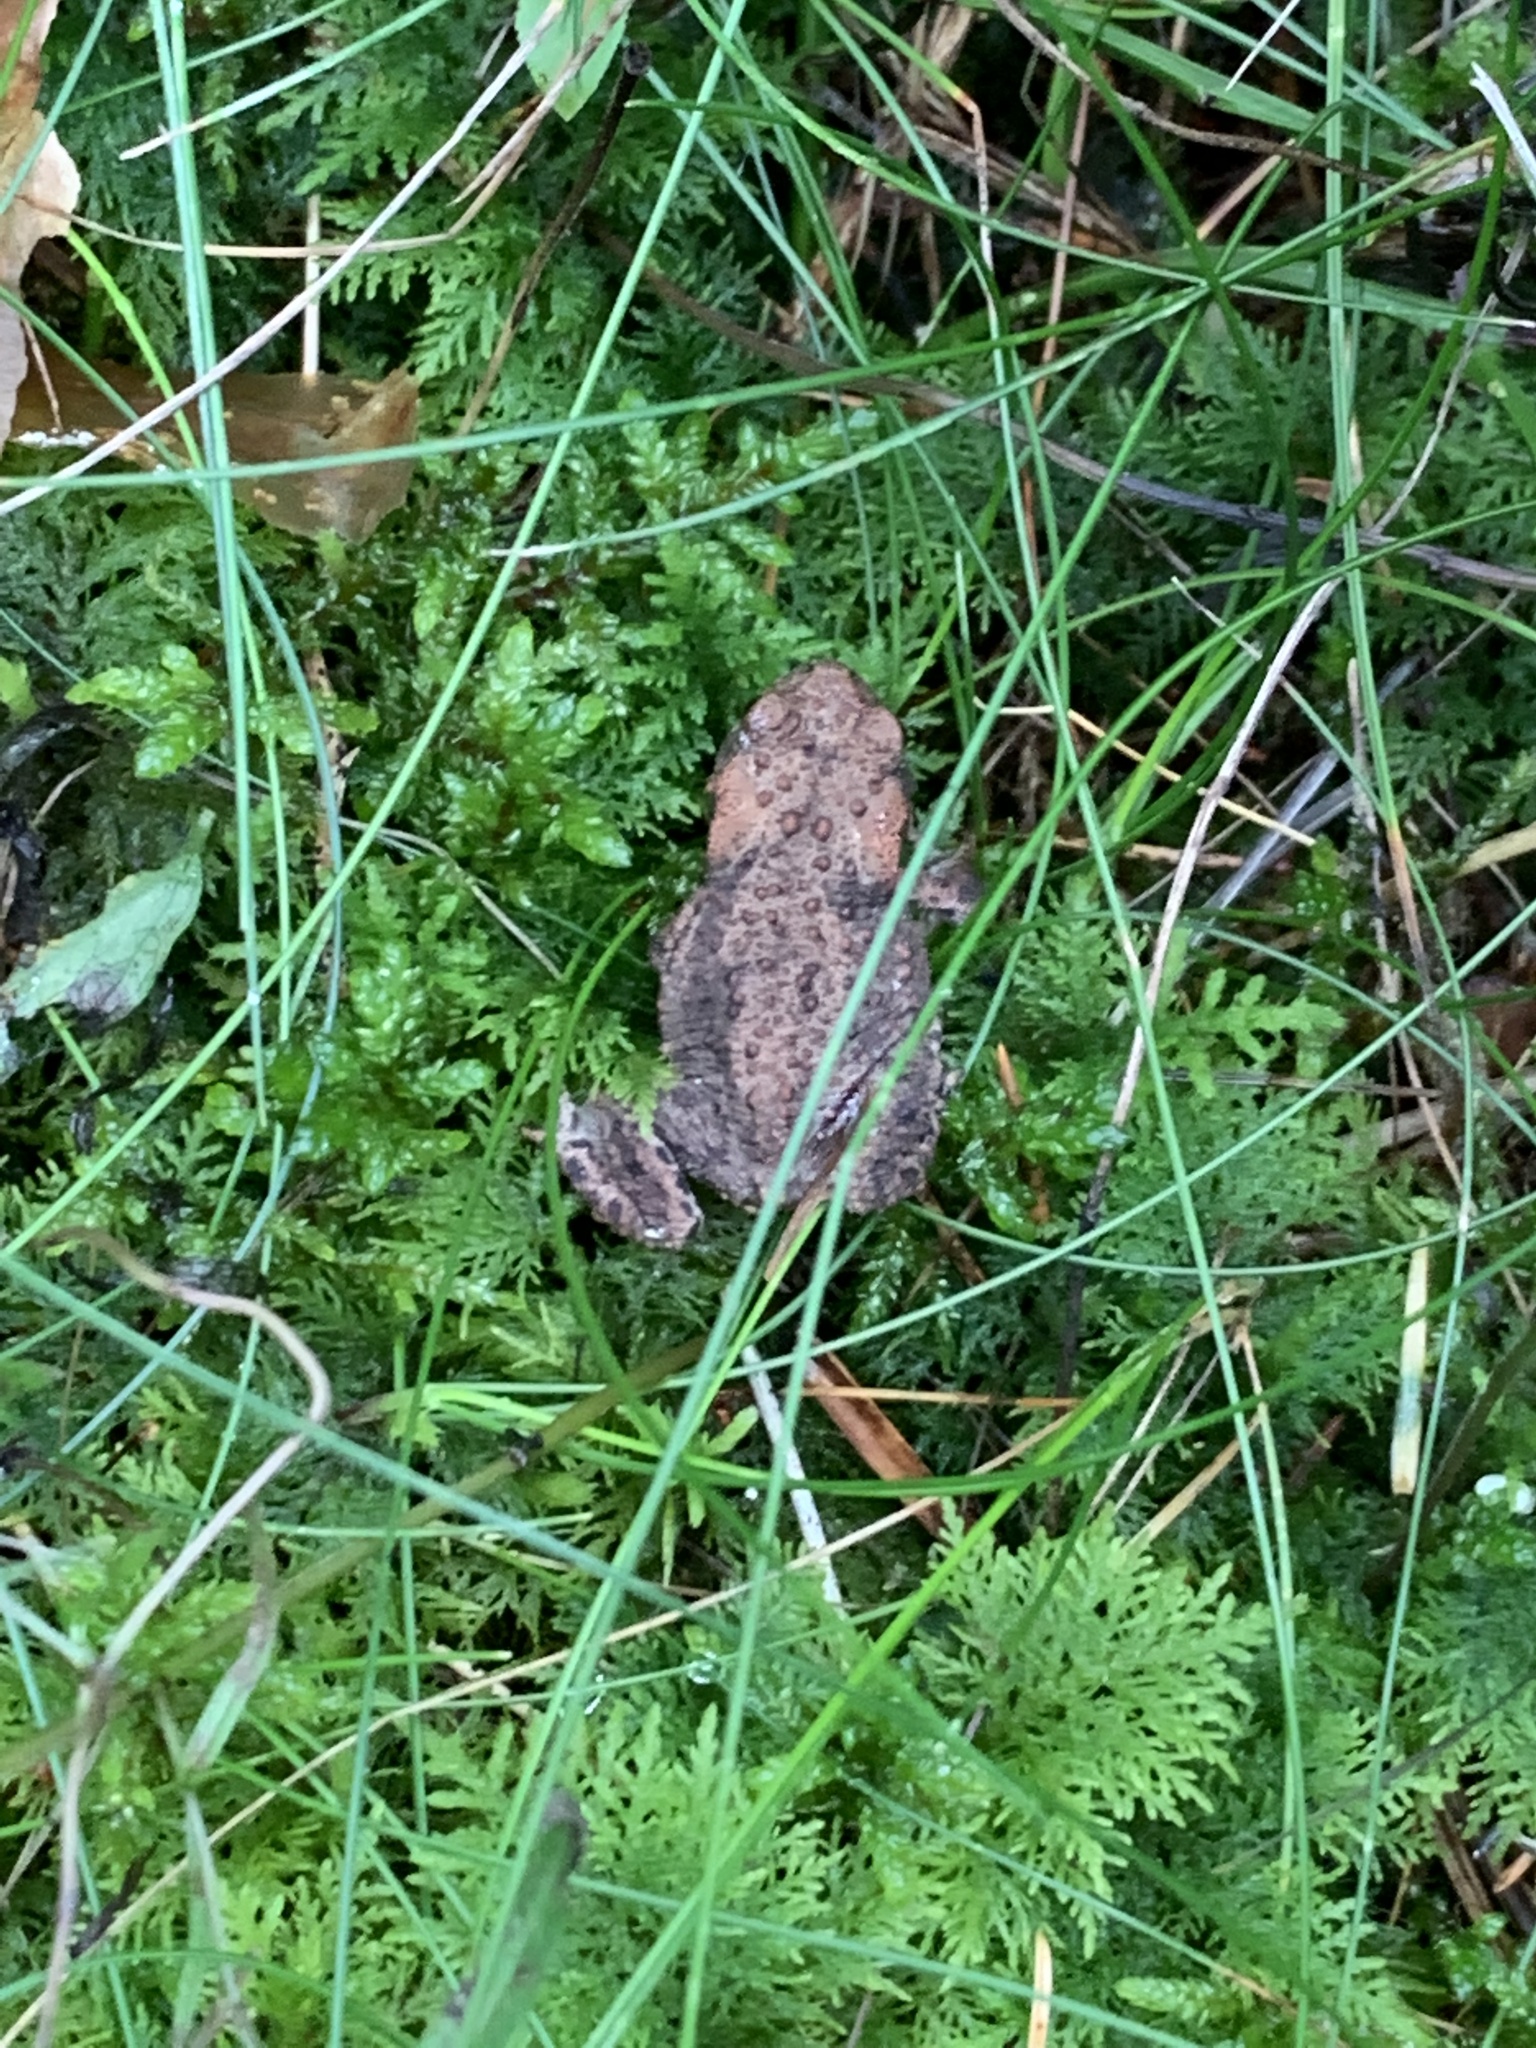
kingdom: Animalia
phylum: Chordata
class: Amphibia
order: Anura
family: Bufonidae
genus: Bufo
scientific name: Bufo bufo
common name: Common toad
